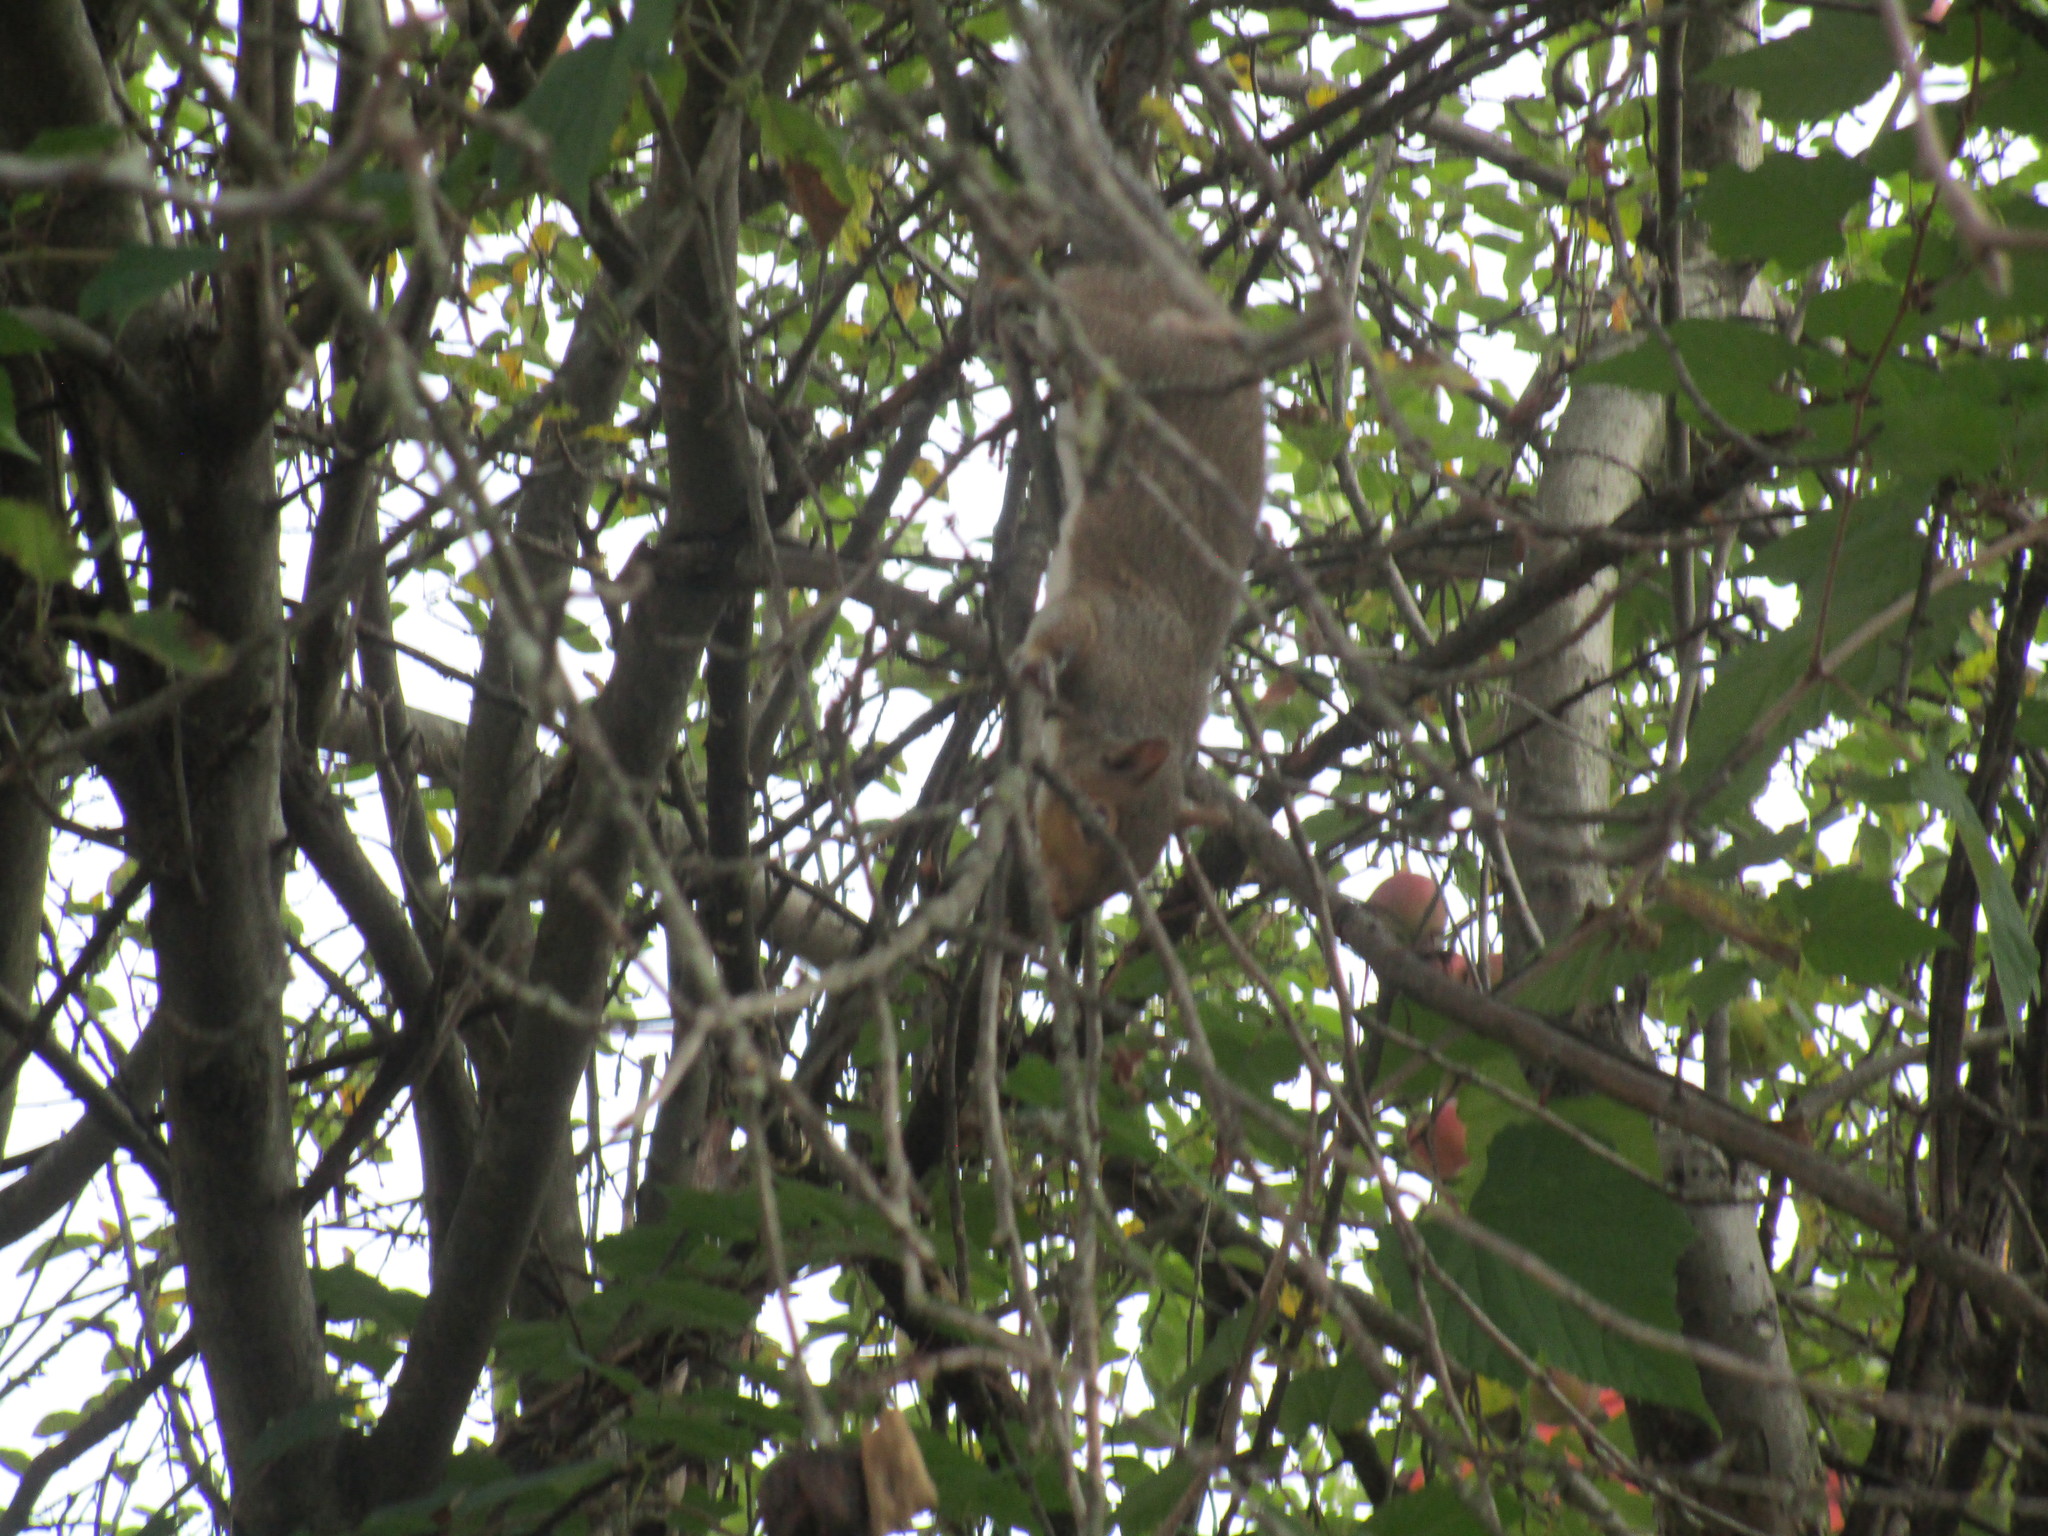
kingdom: Animalia
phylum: Chordata
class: Mammalia
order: Rodentia
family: Sciuridae
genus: Sciurus
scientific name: Sciurus carolinensis
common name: Eastern gray squirrel
